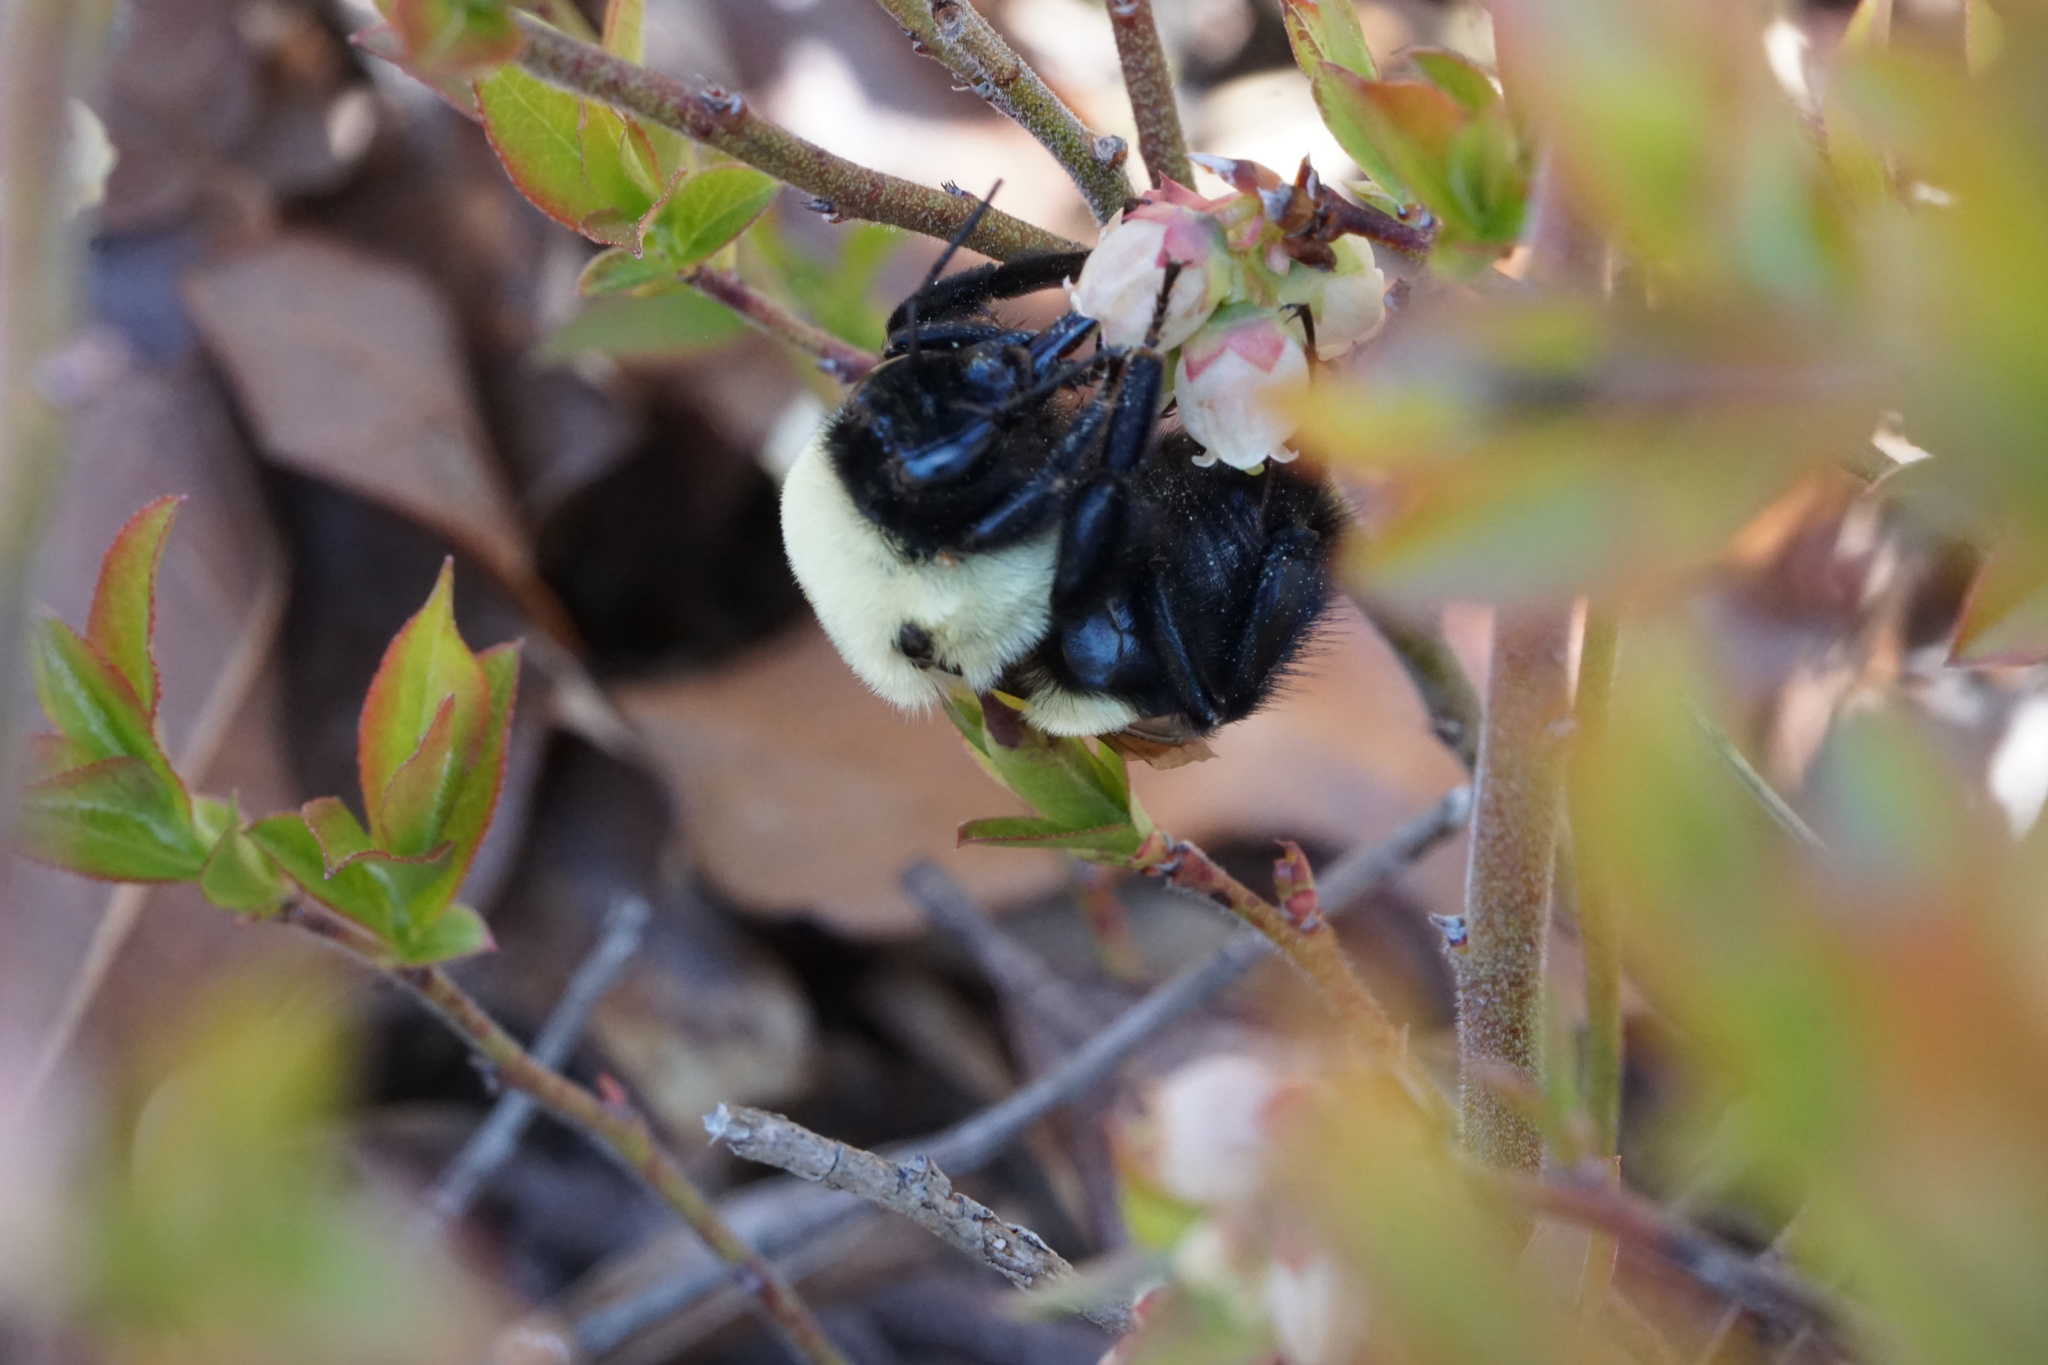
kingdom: Animalia
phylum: Arthropoda
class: Insecta
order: Hymenoptera
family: Apidae
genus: Bombus
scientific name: Bombus griseocollis
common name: Brown-belted bumble bee
